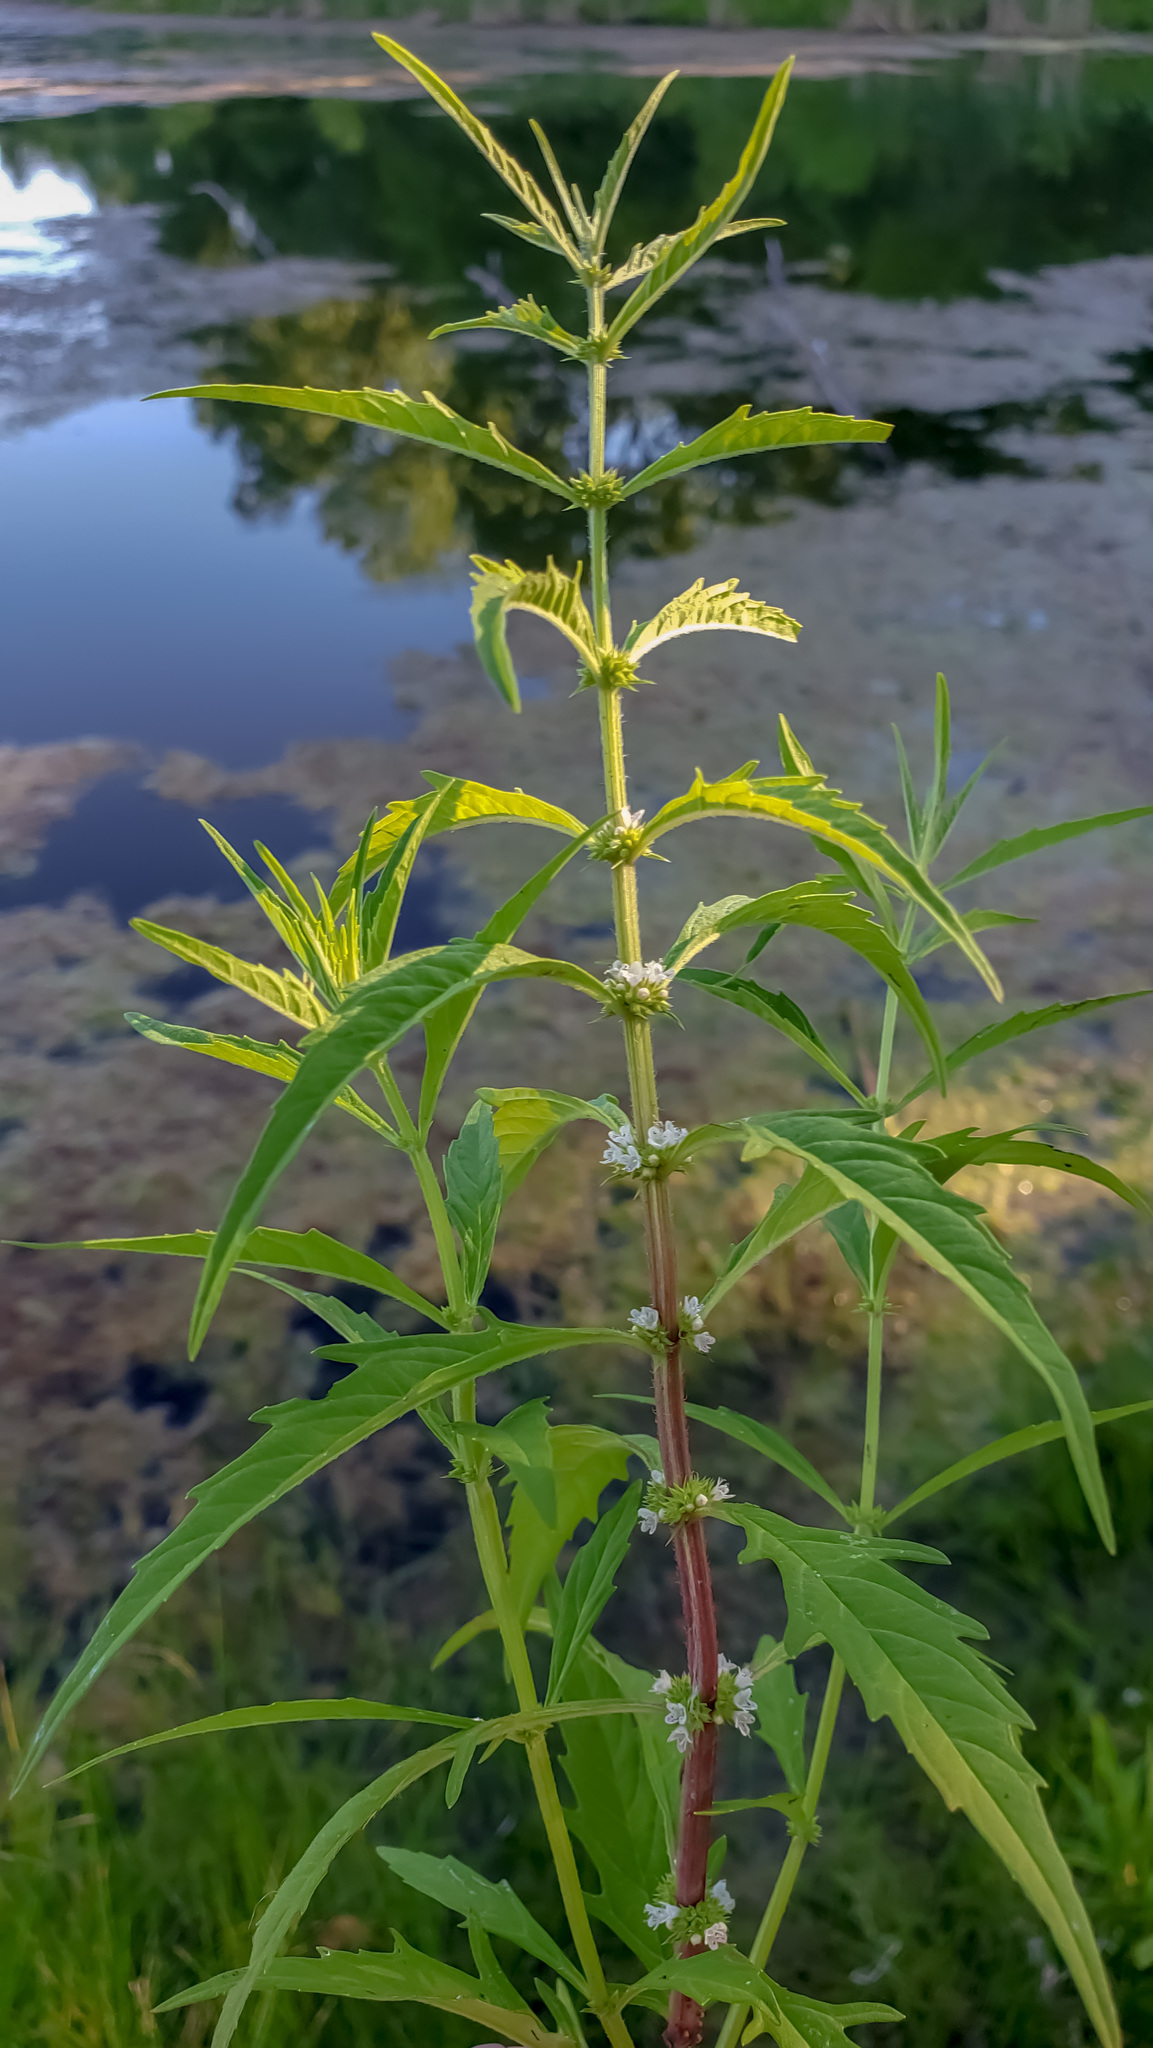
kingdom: Plantae
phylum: Tracheophyta
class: Magnoliopsida
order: Lamiales
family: Lamiaceae
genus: Lycopus
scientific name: Lycopus americanus
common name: American bugleweed
